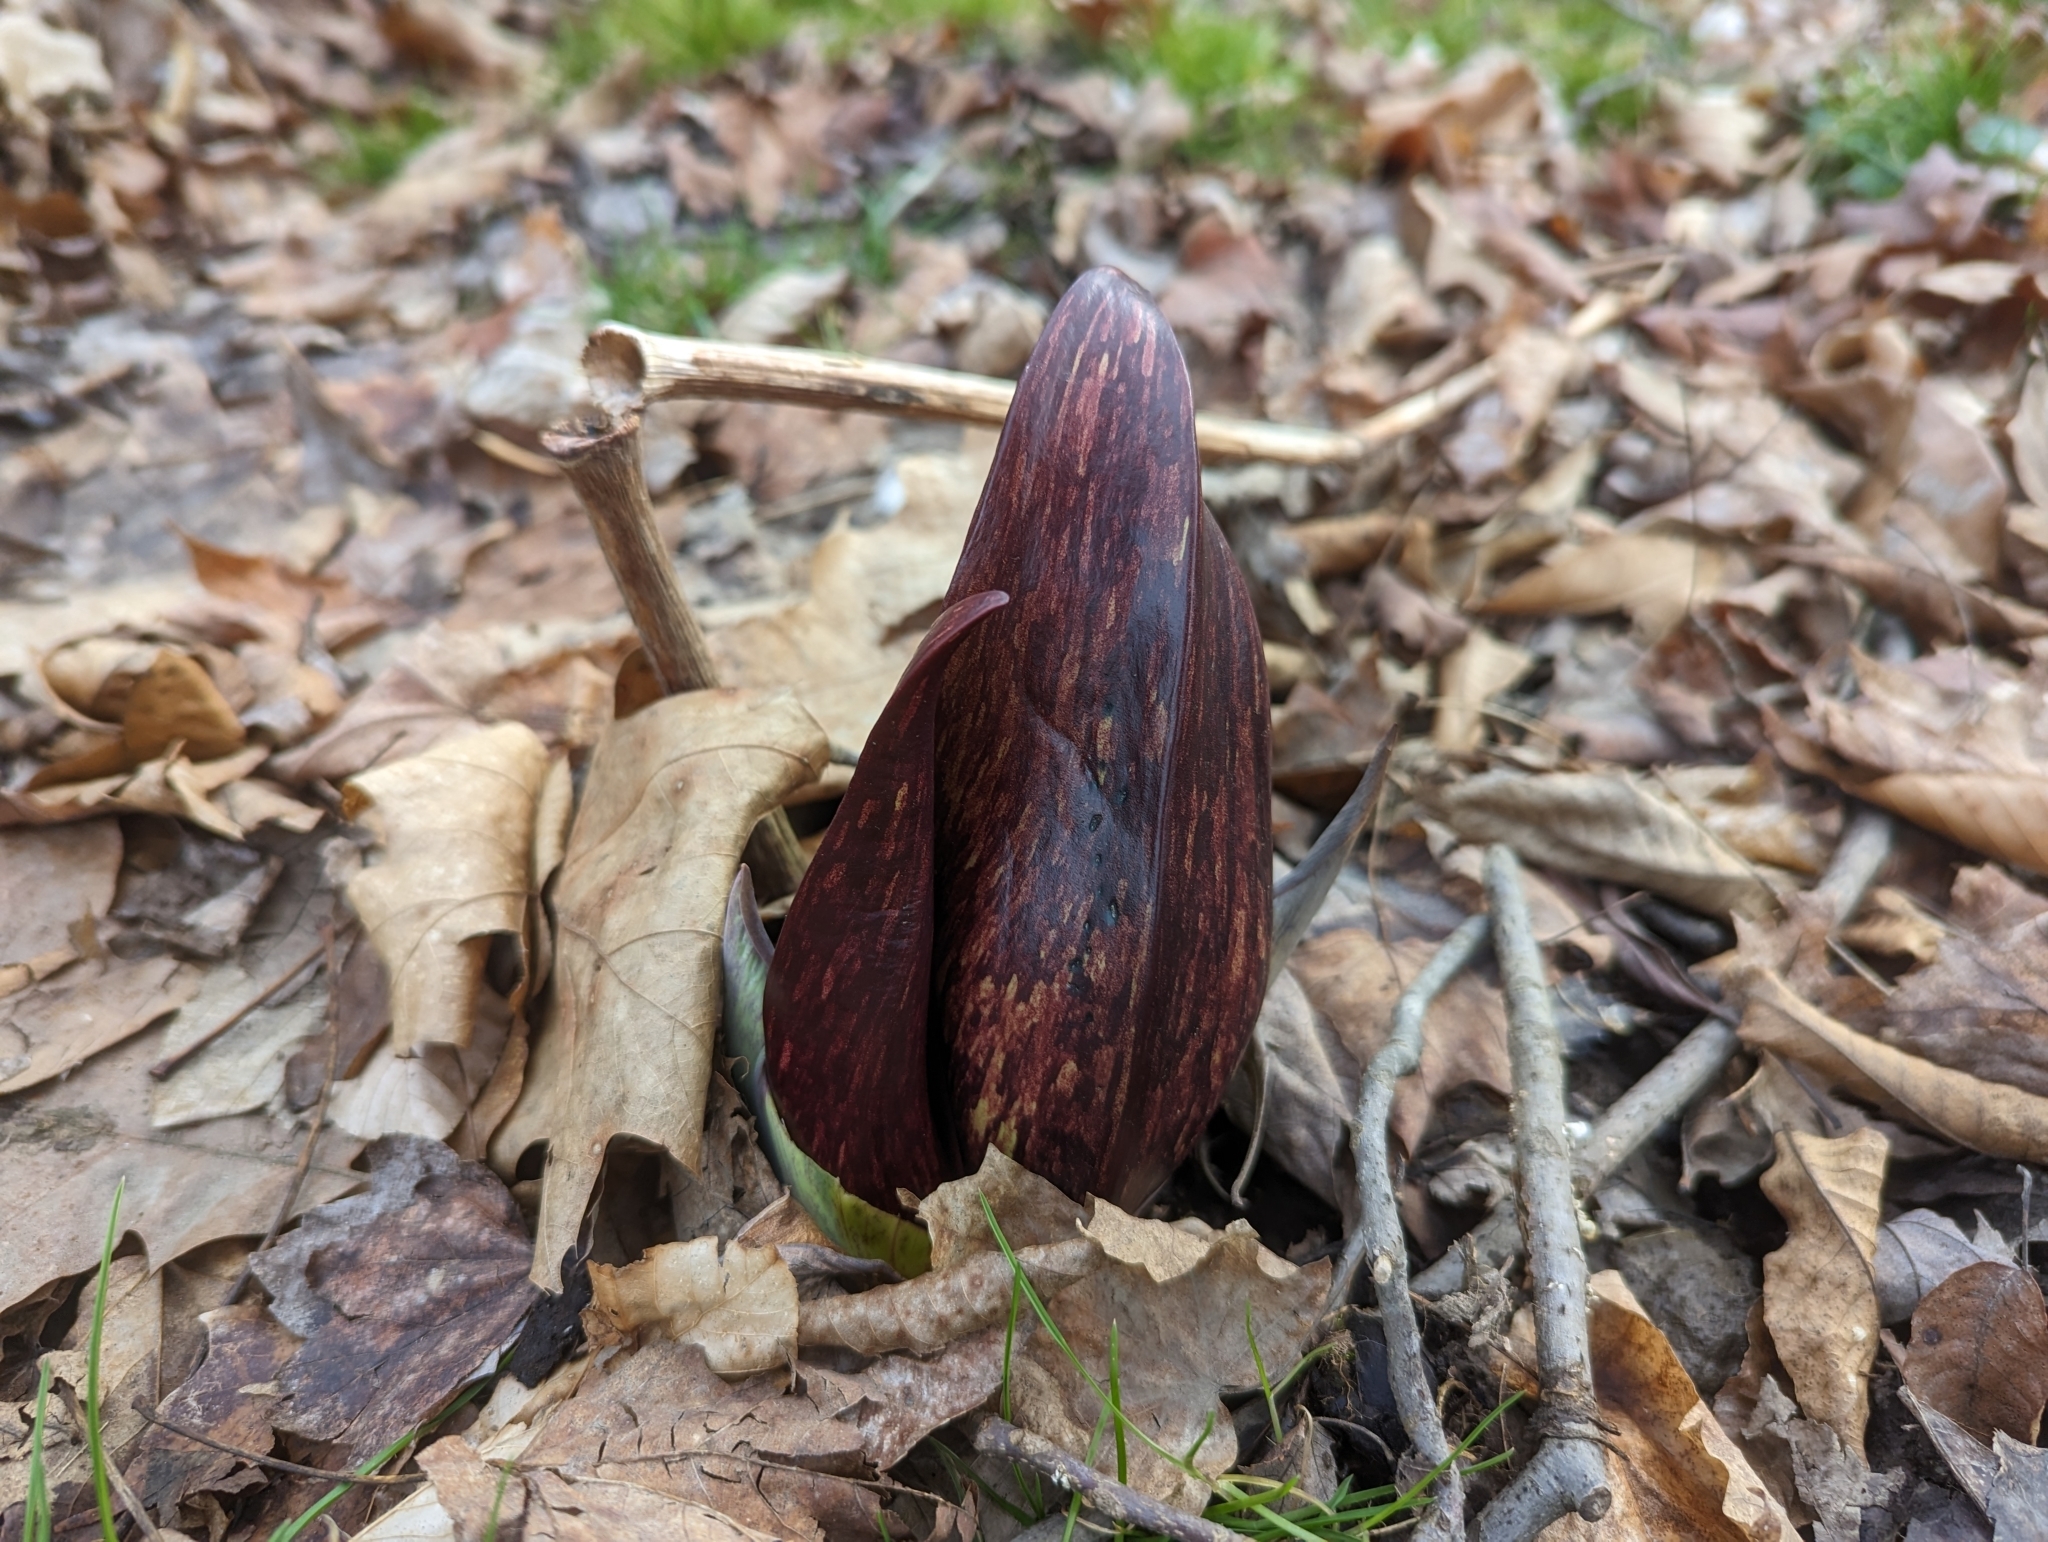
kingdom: Plantae
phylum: Tracheophyta
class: Liliopsida
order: Alismatales
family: Araceae
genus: Symplocarpus
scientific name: Symplocarpus foetidus
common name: Eastern skunk cabbage
